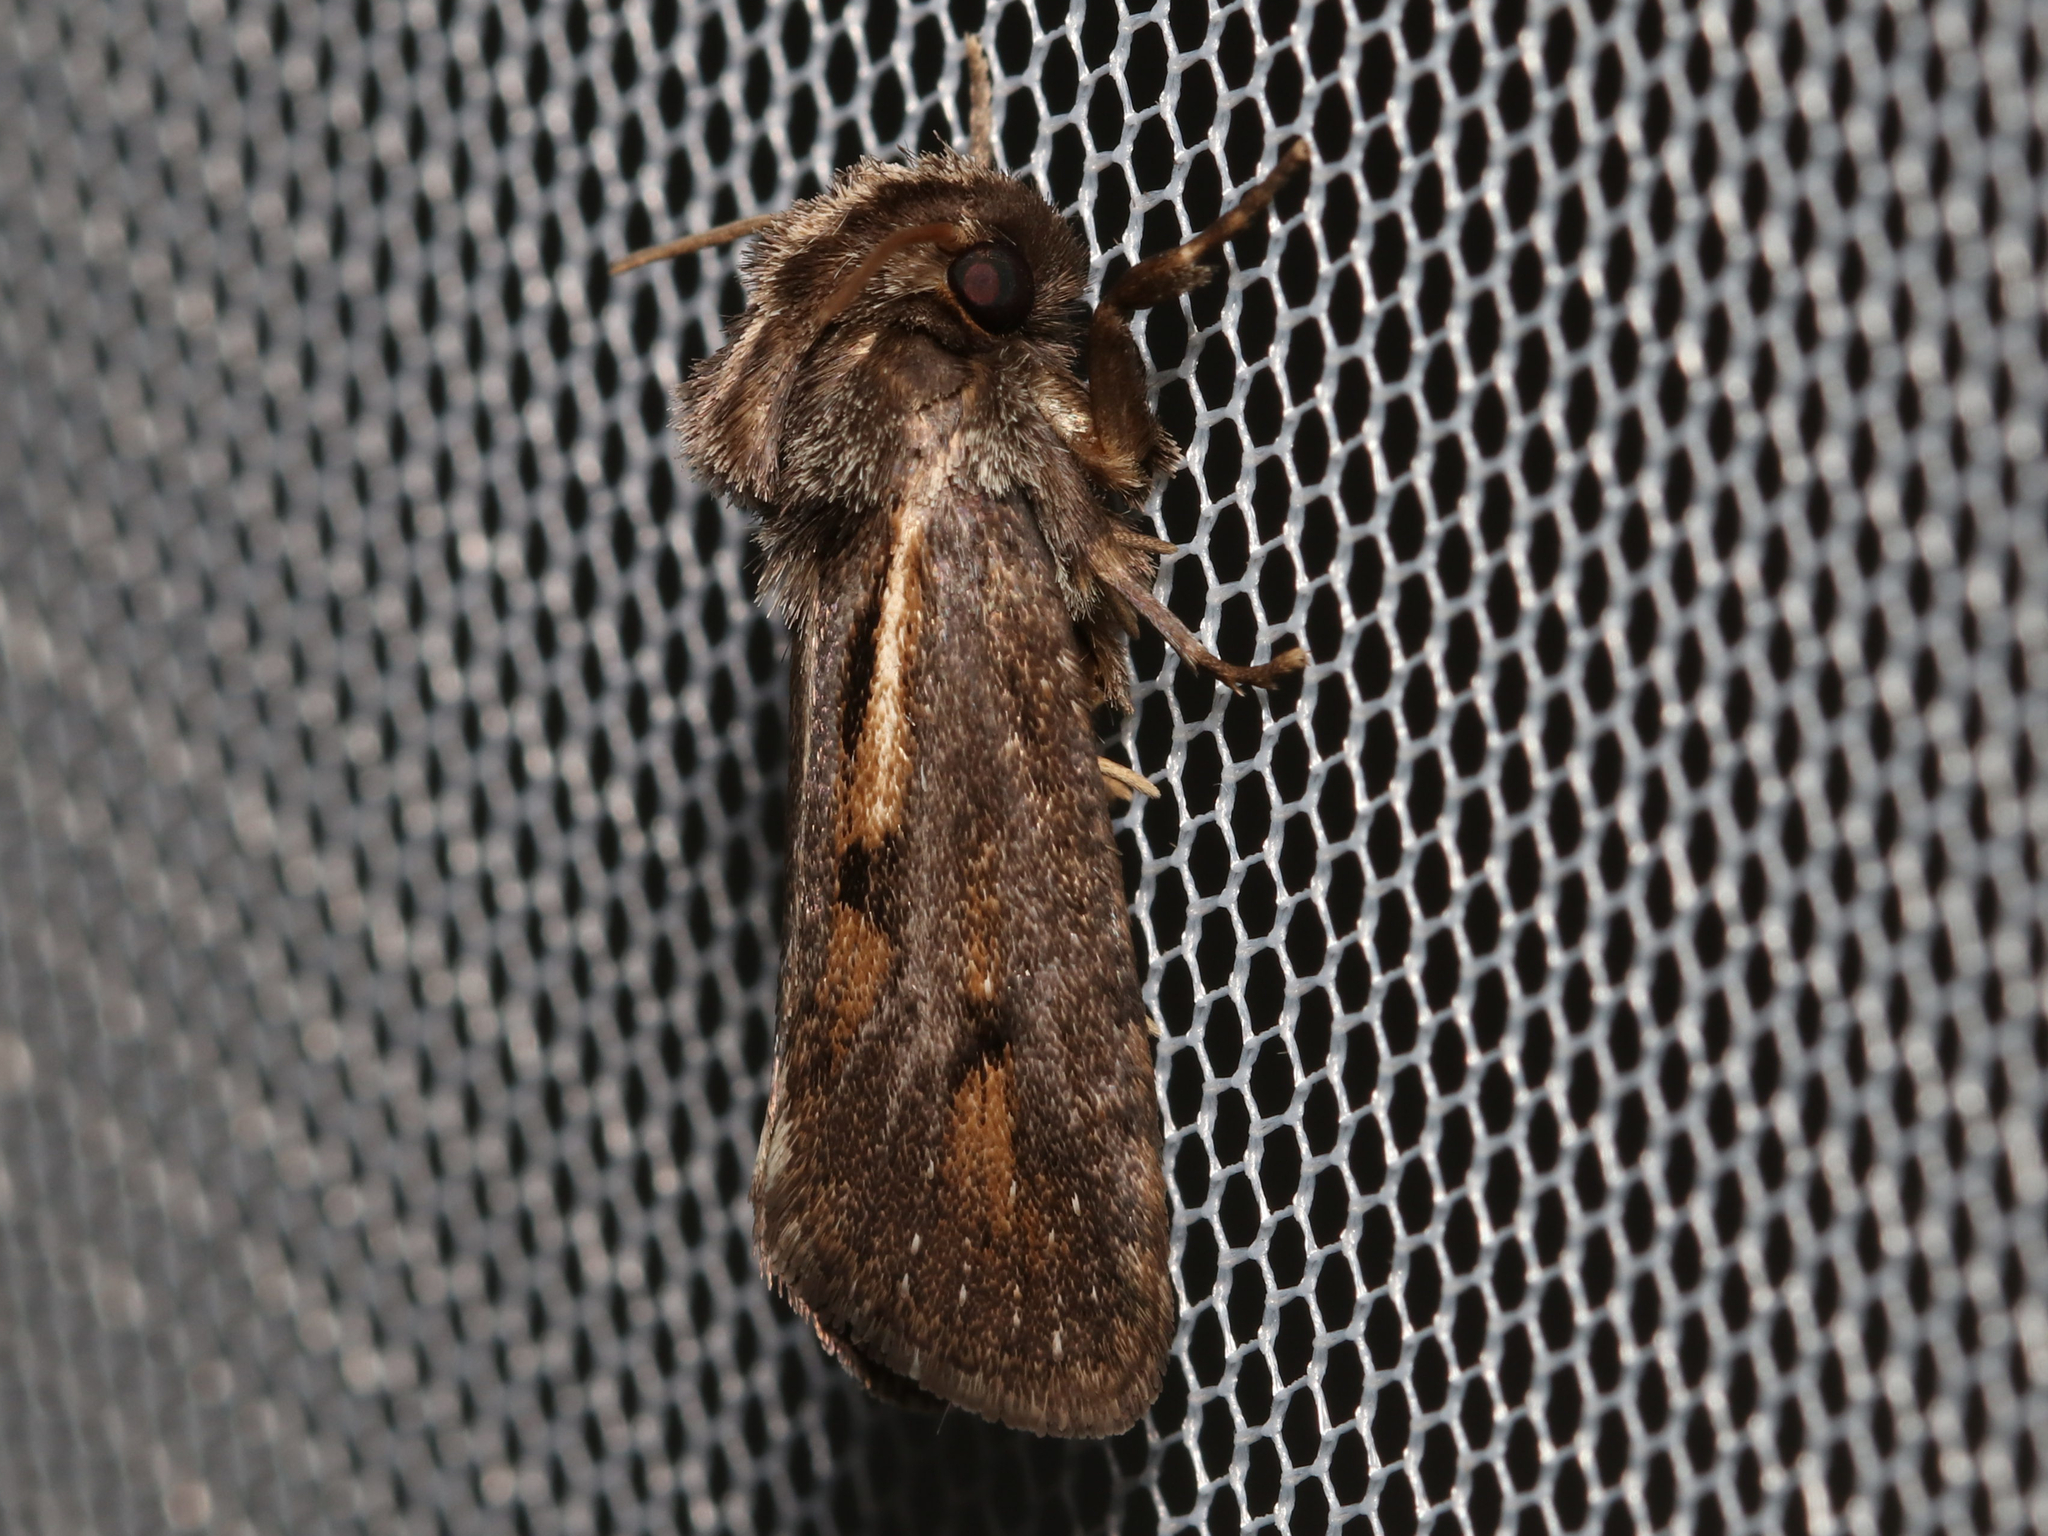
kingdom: Animalia
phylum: Arthropoda
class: Insecta
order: Lepidoptera
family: Tineidae
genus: Acrolophus
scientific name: Acrolophus popeanella
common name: Clemens' grass tubeworm moth
